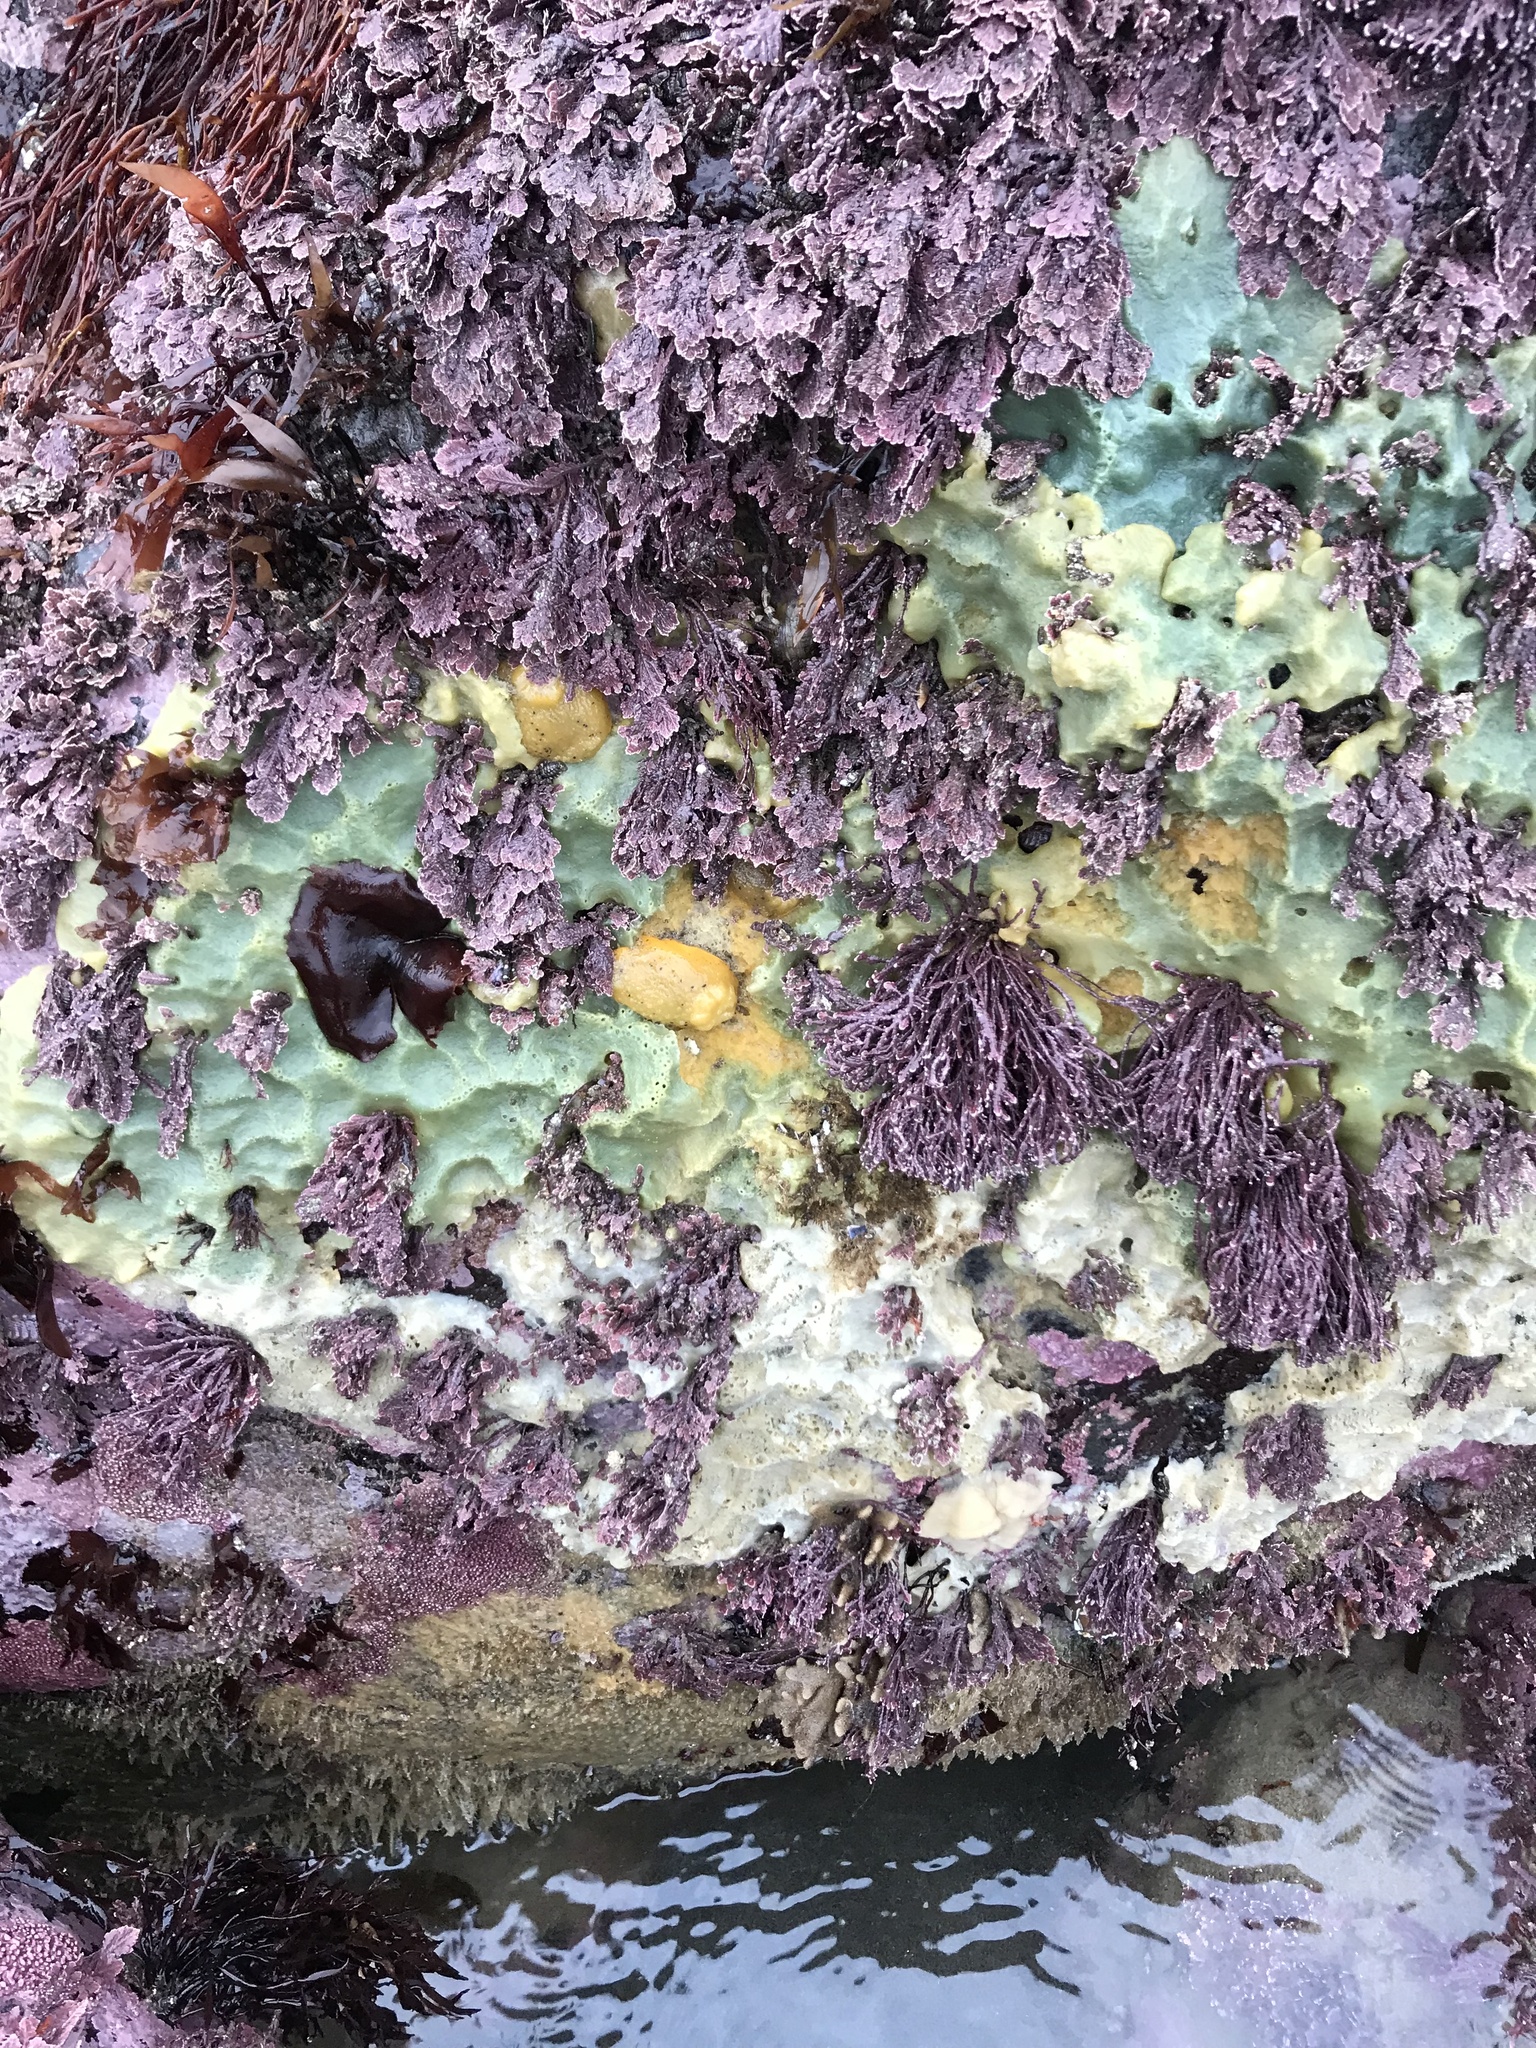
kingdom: Animalia
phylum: Porifera
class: Demospongiae
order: Suberitida
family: Halichondriidae
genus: Halichondria
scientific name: Halichondria panicea
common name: Breadcrumb sponge
